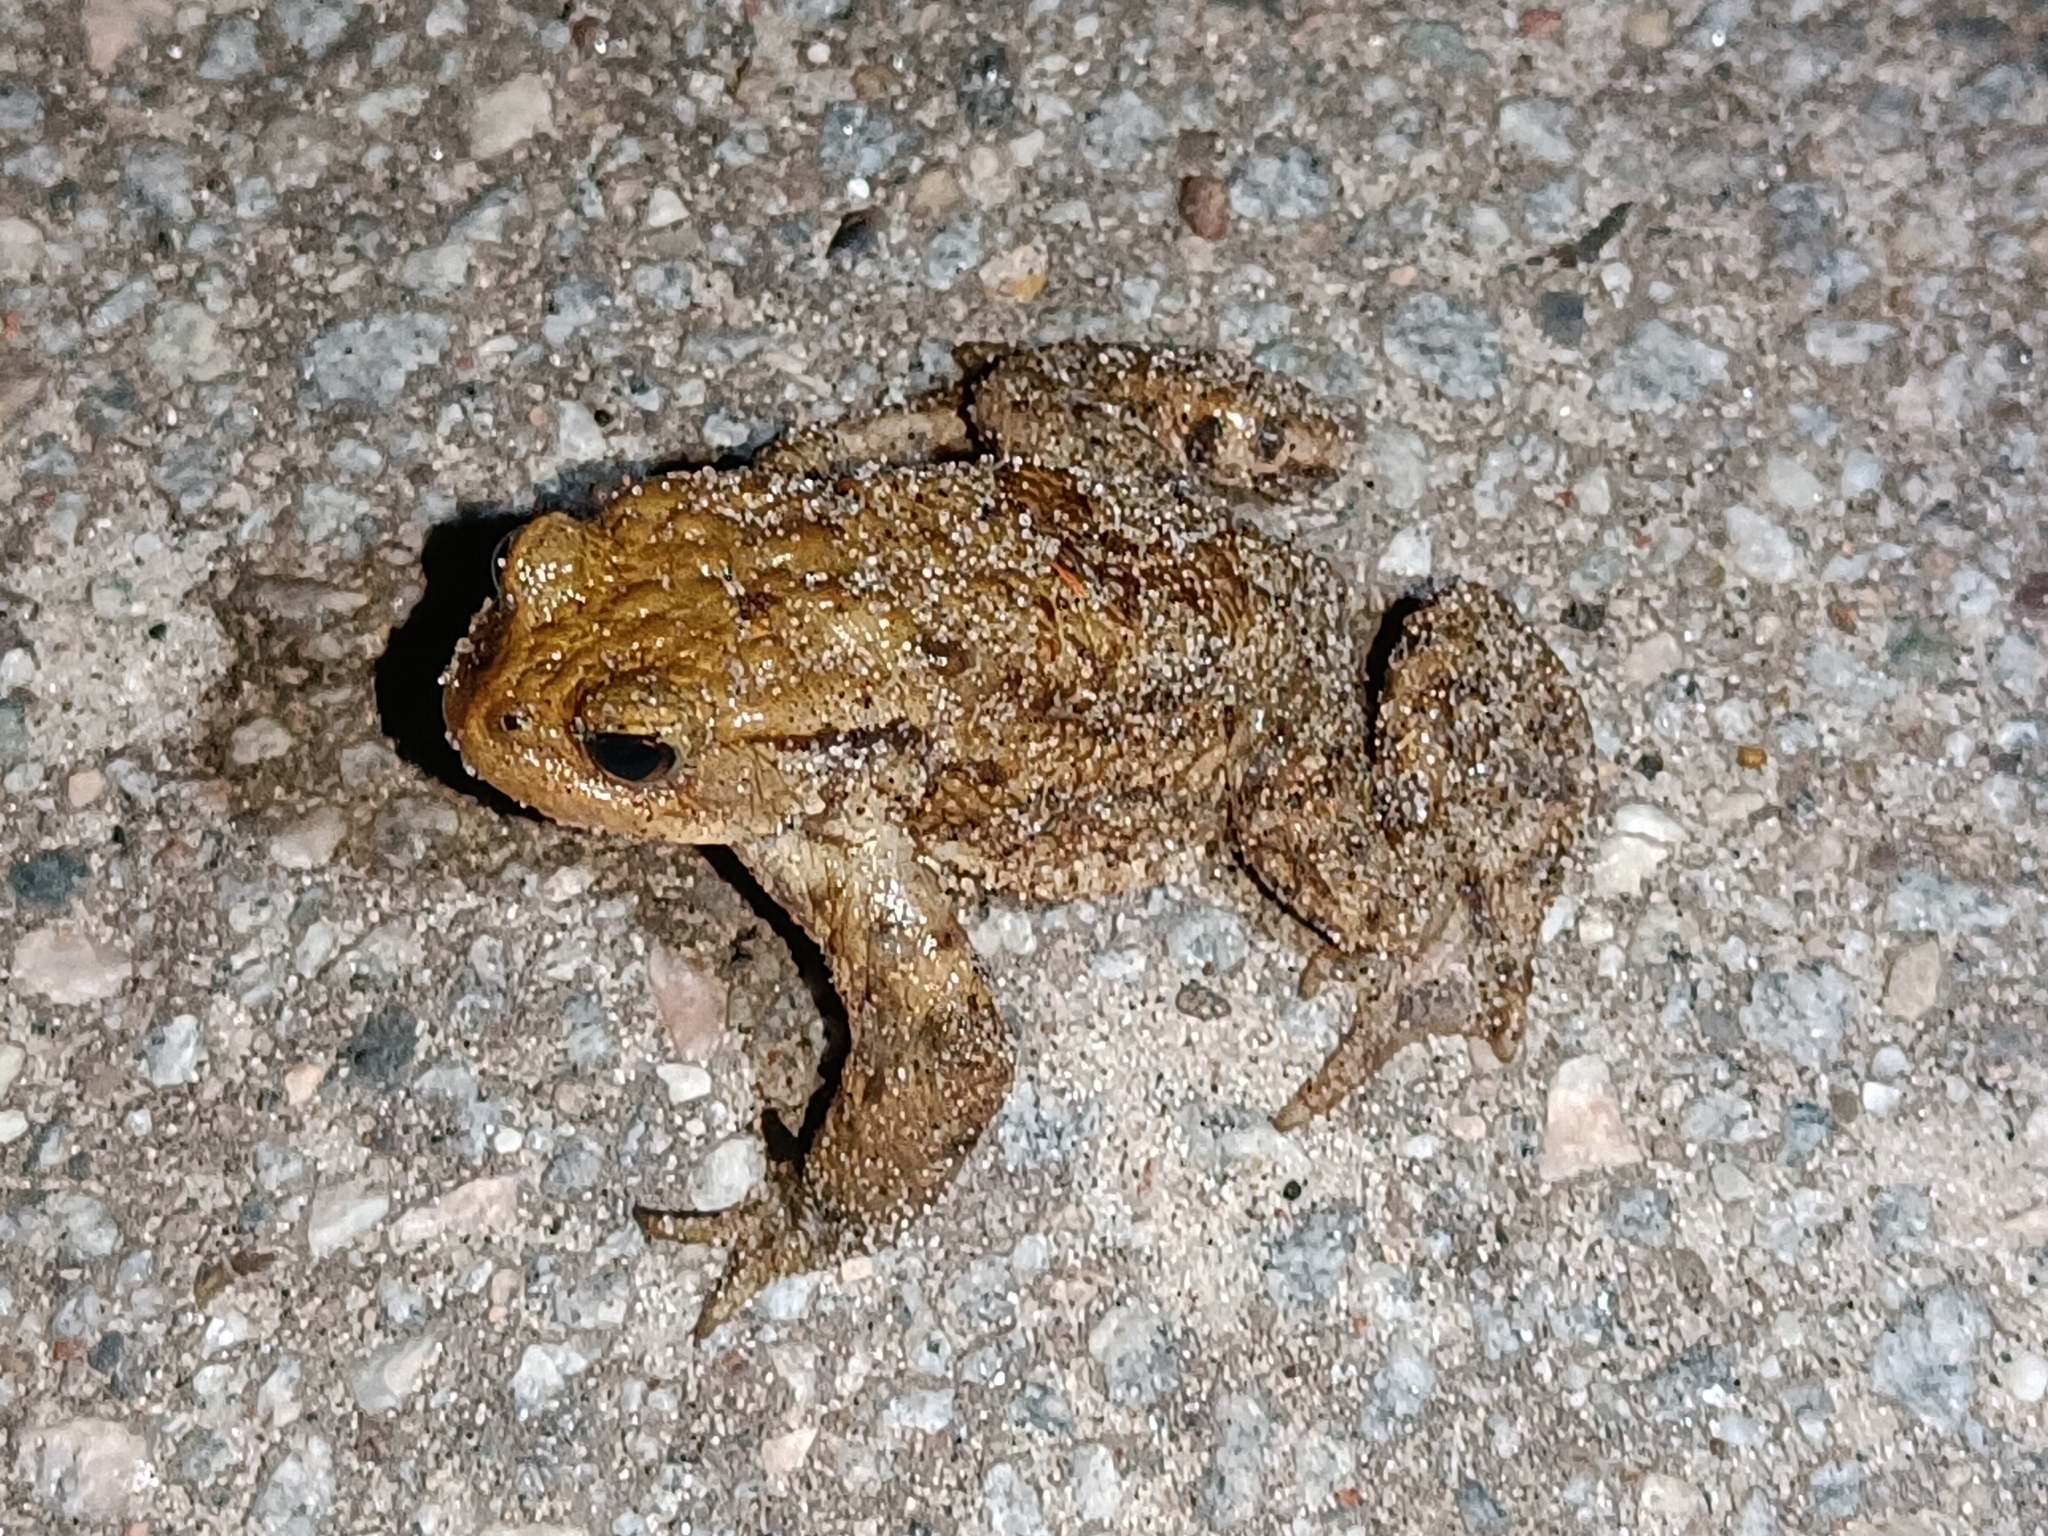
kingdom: Animalia
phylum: Chordata
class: Amphibia
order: Anura
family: Bufonidae
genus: Bufo
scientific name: Bufo bufo
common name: Common toad
